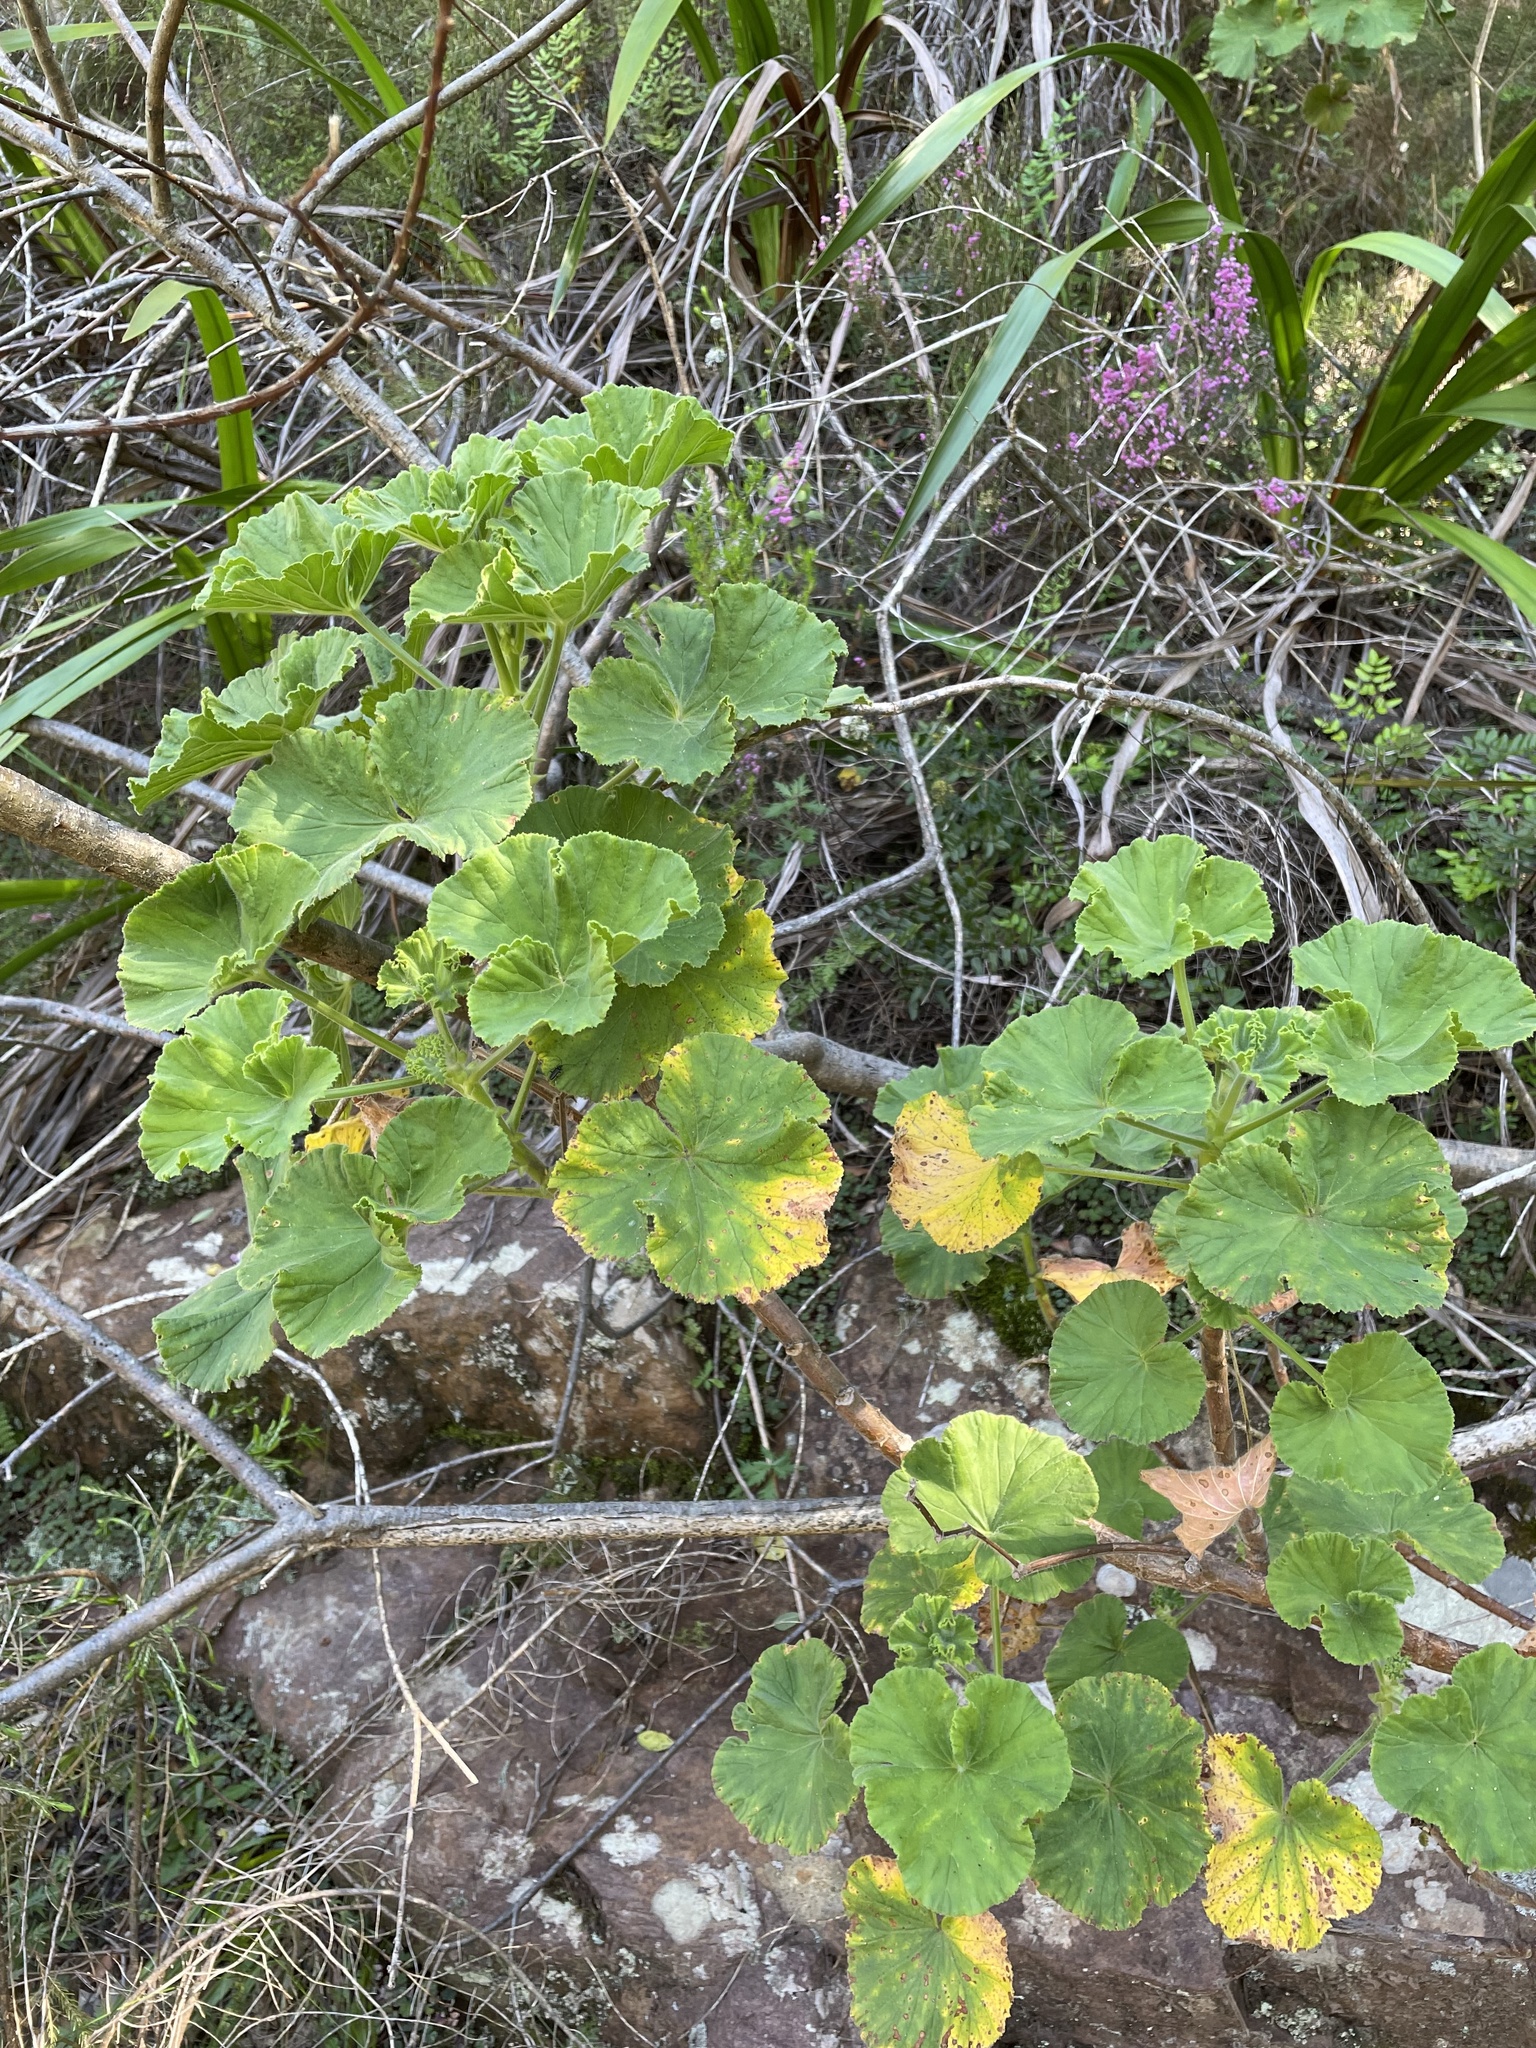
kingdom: Plantae
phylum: Tracheophyta
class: Magnoliopsida
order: Geraniales
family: Geraniaceae
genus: Pelargonium
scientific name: Pelargonium cucullatum
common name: Tree pelargonium
